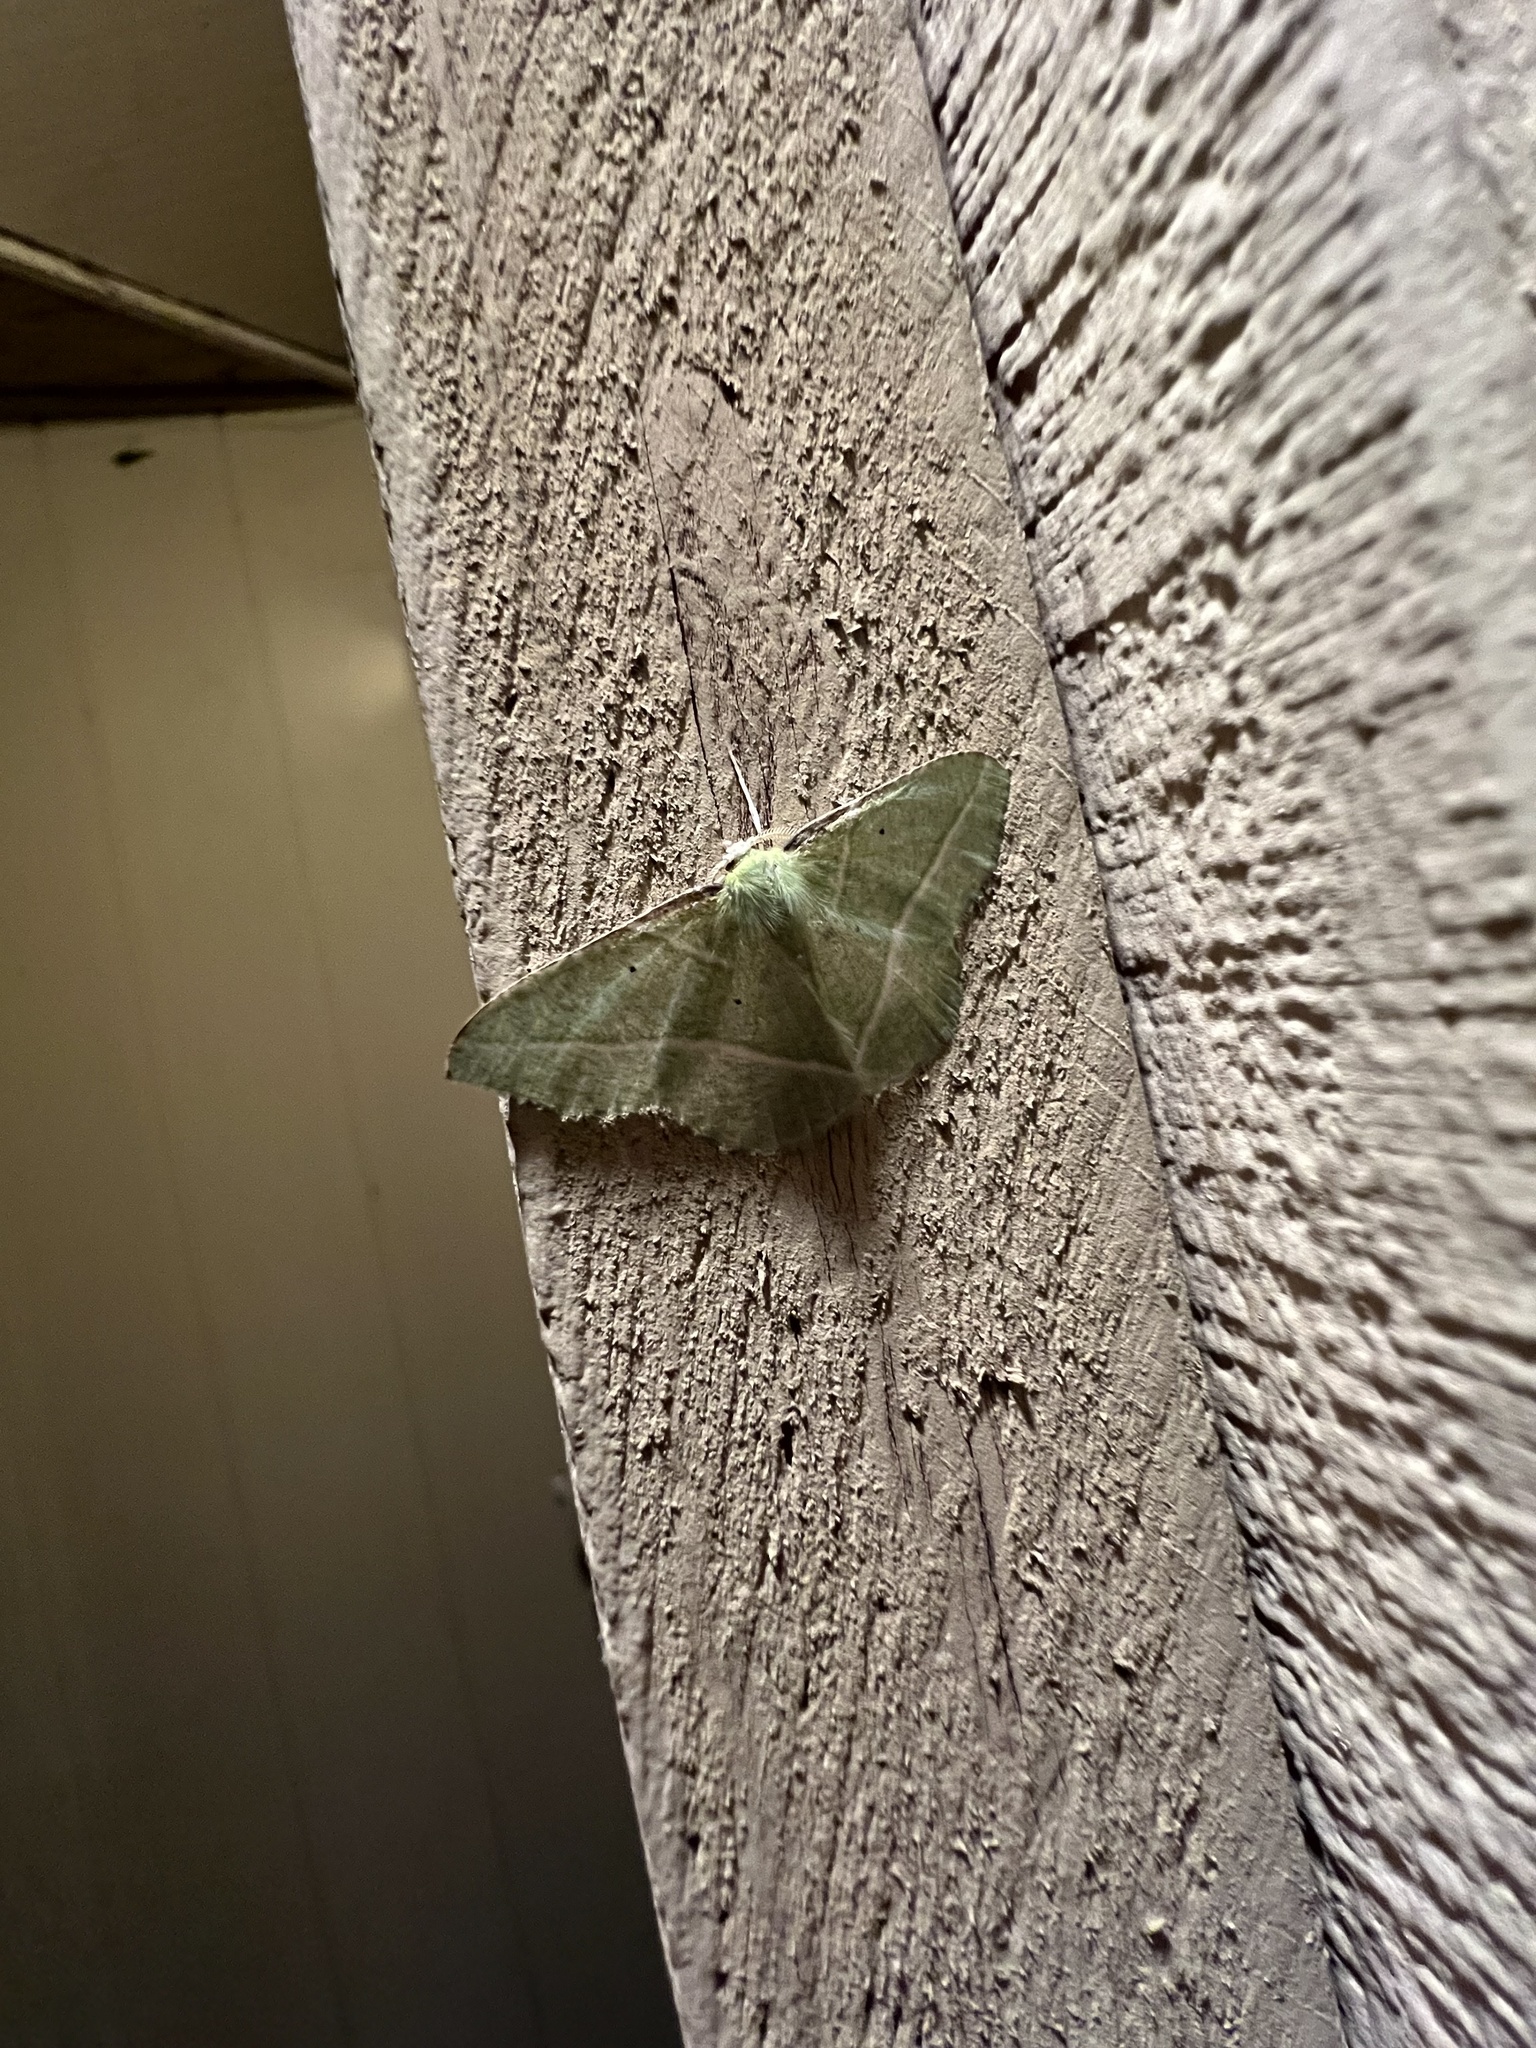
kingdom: Animalia
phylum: Arthropoda
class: Insecta
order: Lepidoptera
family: Geometridae
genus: Dichorda
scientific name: Dichorda illustraria
